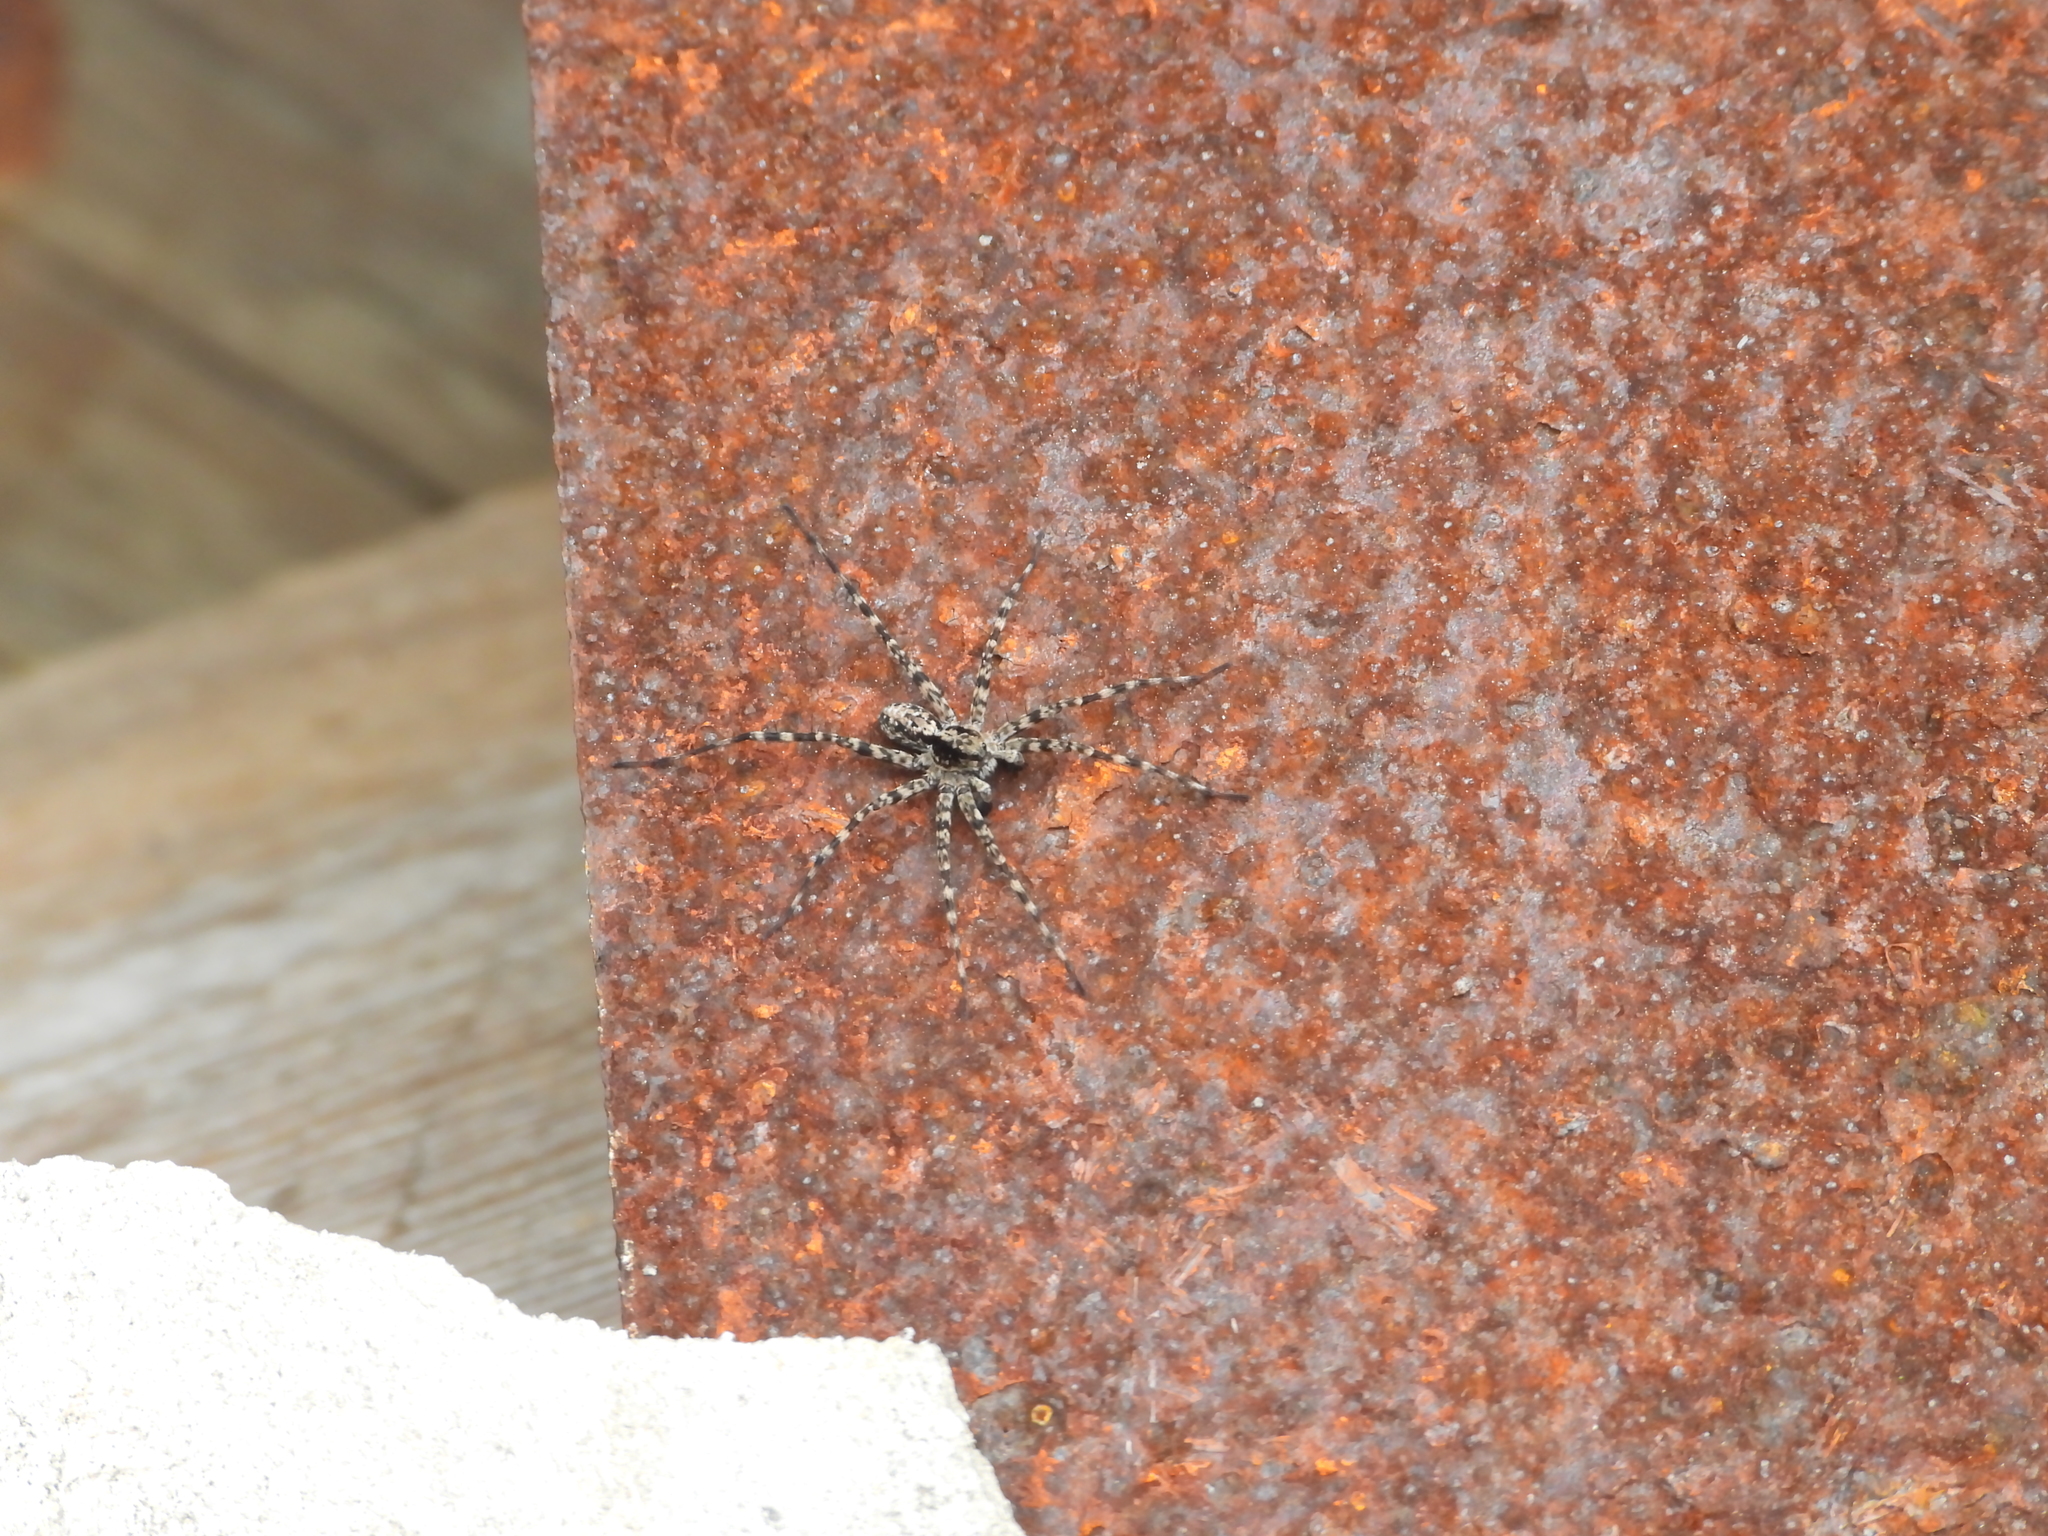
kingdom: Animalia
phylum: Arthropoda
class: Arachnida
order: Araneae
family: Lycosidae
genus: Acantholycosa
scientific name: Acantholycosa lignaria
